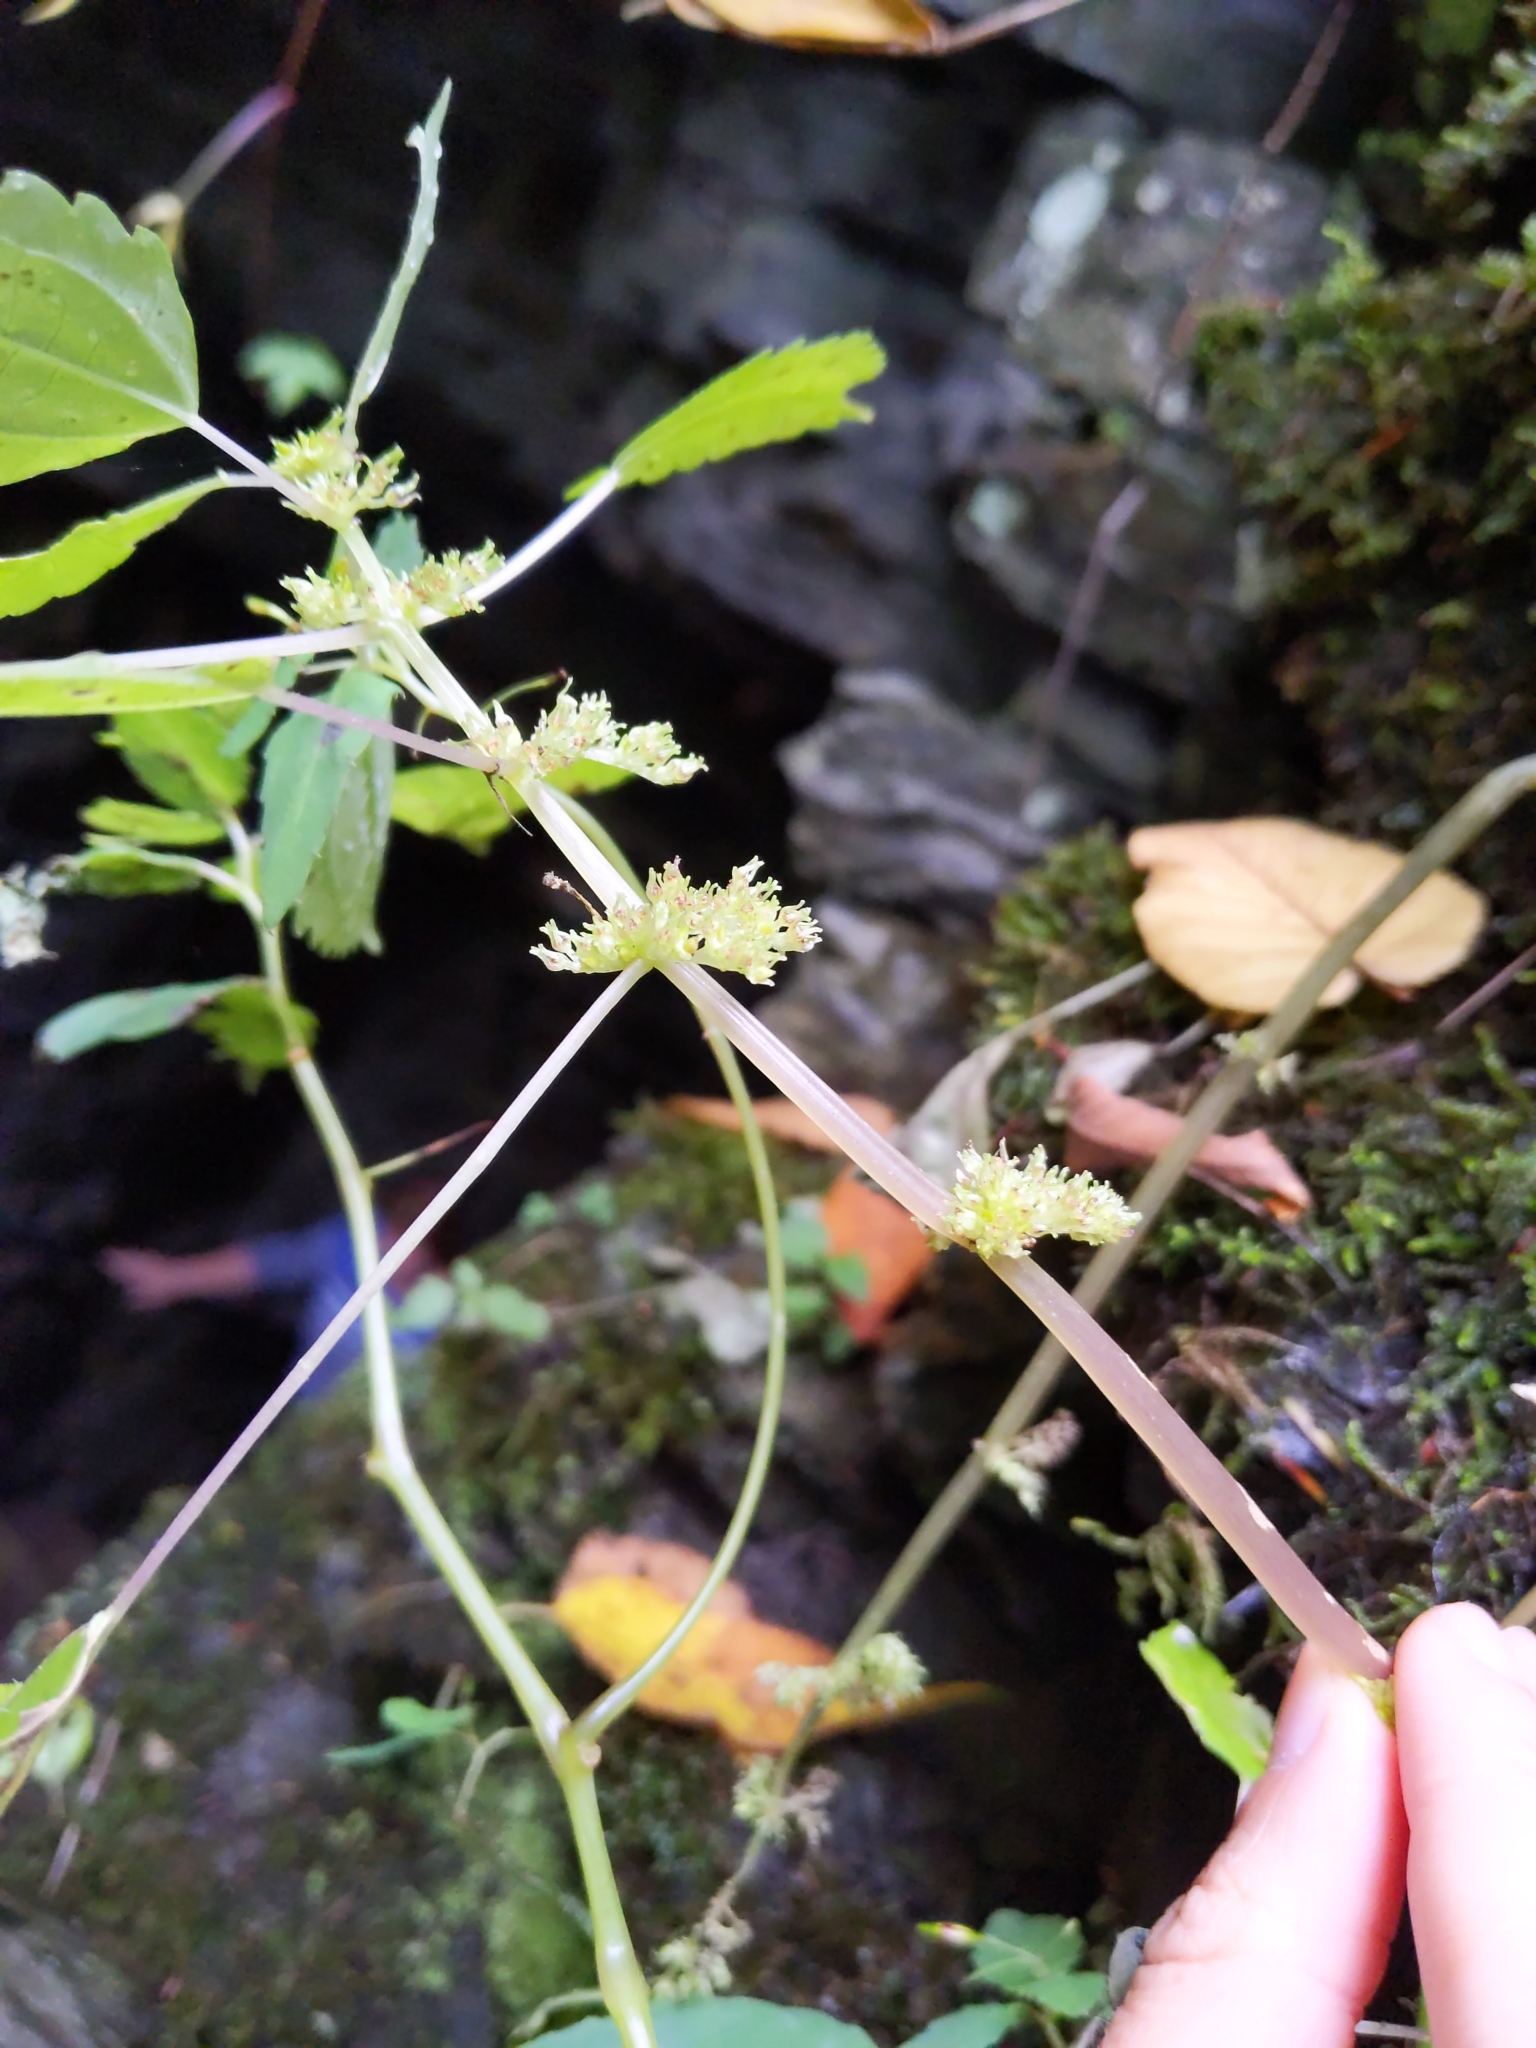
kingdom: Plantae
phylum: Tracheophyta
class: Magnoliopsida
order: Rosales
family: Urticaceae
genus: Pilea
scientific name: Pilea pumila
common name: Clearweed
